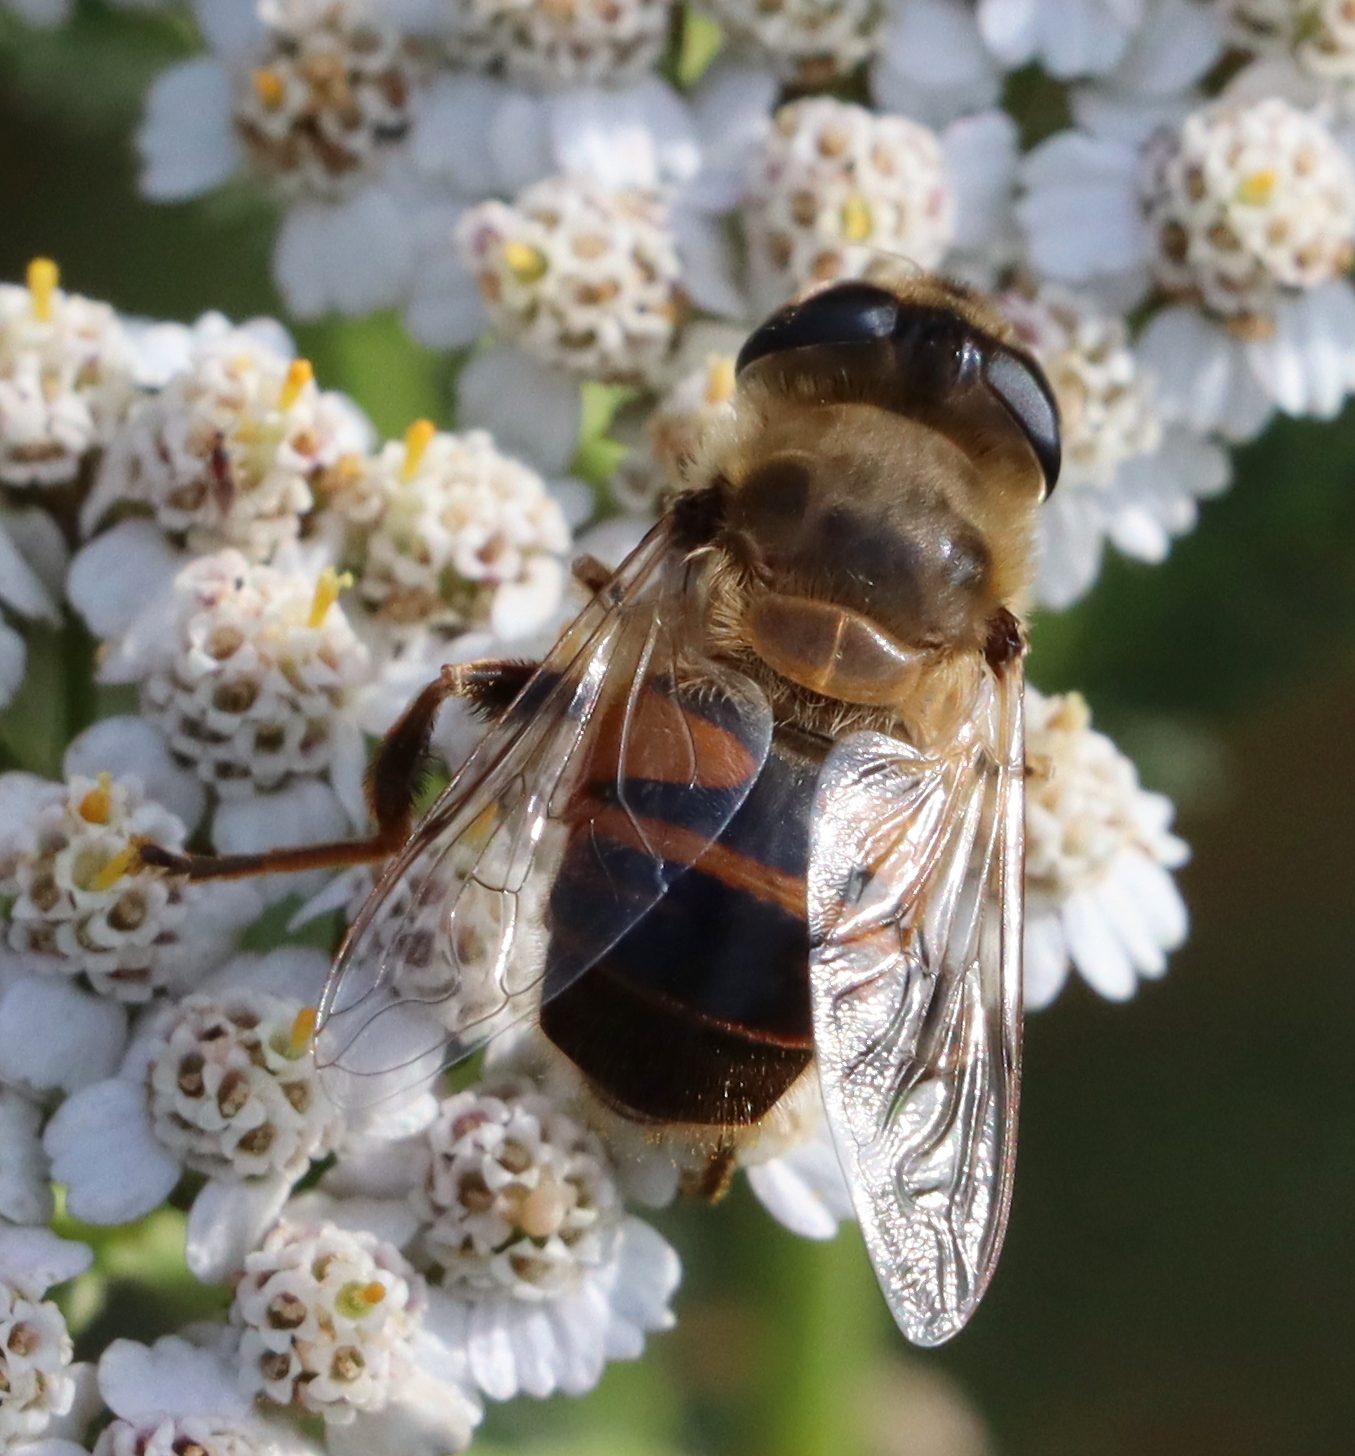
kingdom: Animalia
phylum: Arthropoda
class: Insecta
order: Diptera
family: Syrphidae
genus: Eristalis
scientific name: Eristalis tenax
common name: Drone fly
